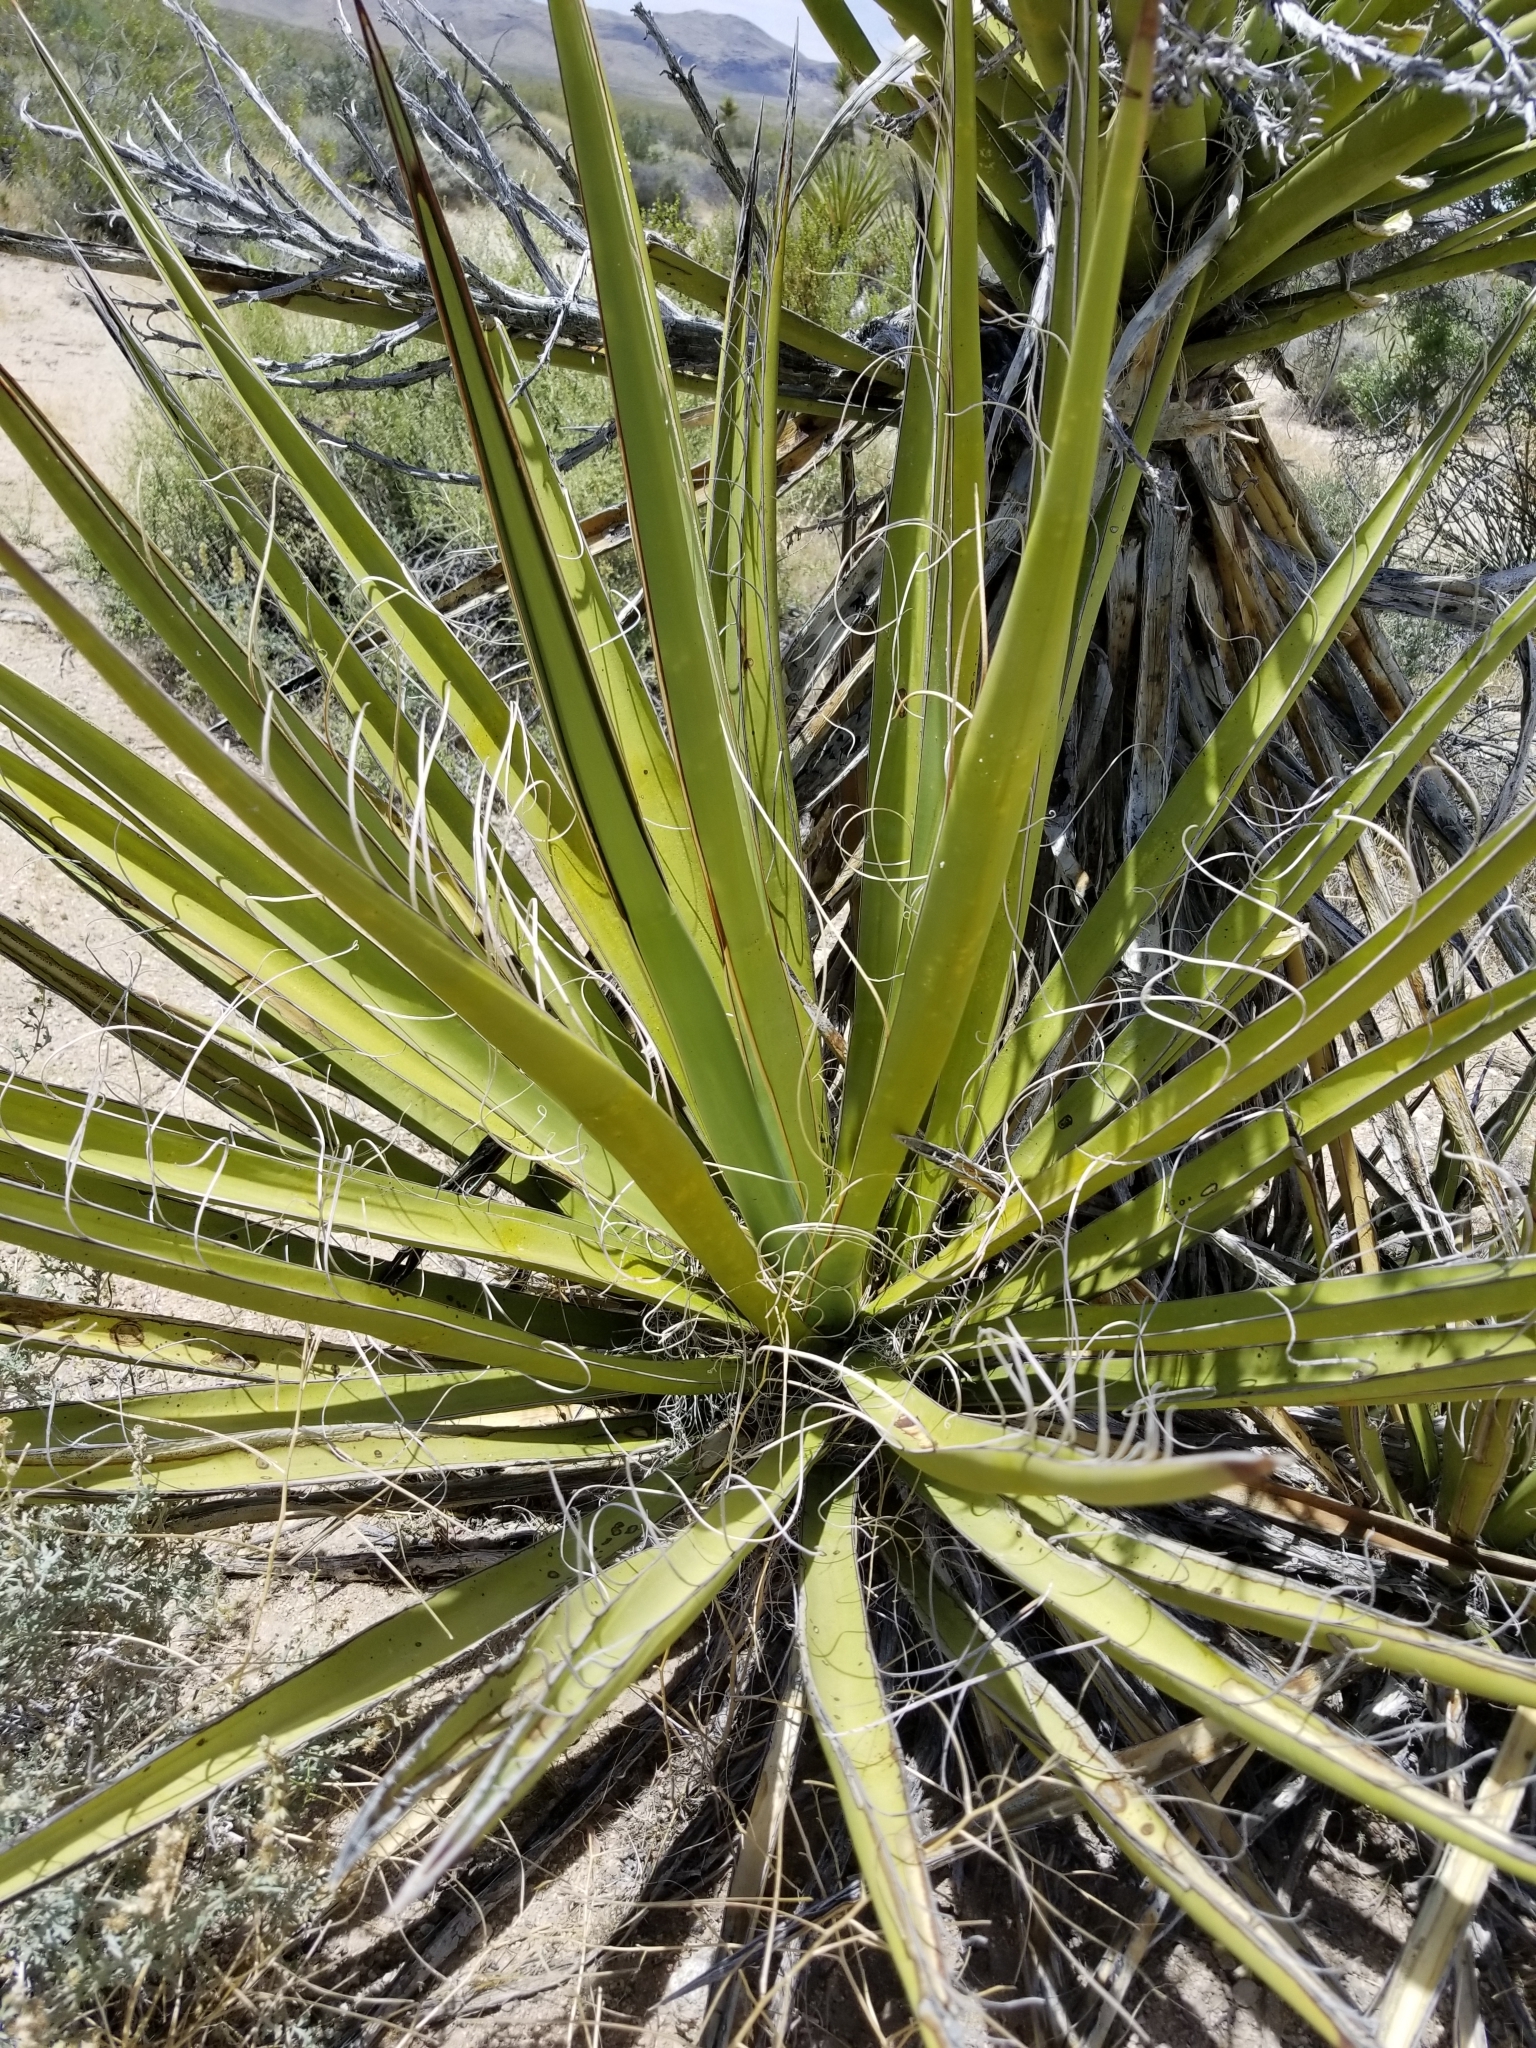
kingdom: Plantae
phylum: Tracheophyta
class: Liliopsida
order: Asparagales
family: Asparagaceae
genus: Yucca
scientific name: Yucca schidigera
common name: Mojave yucca
